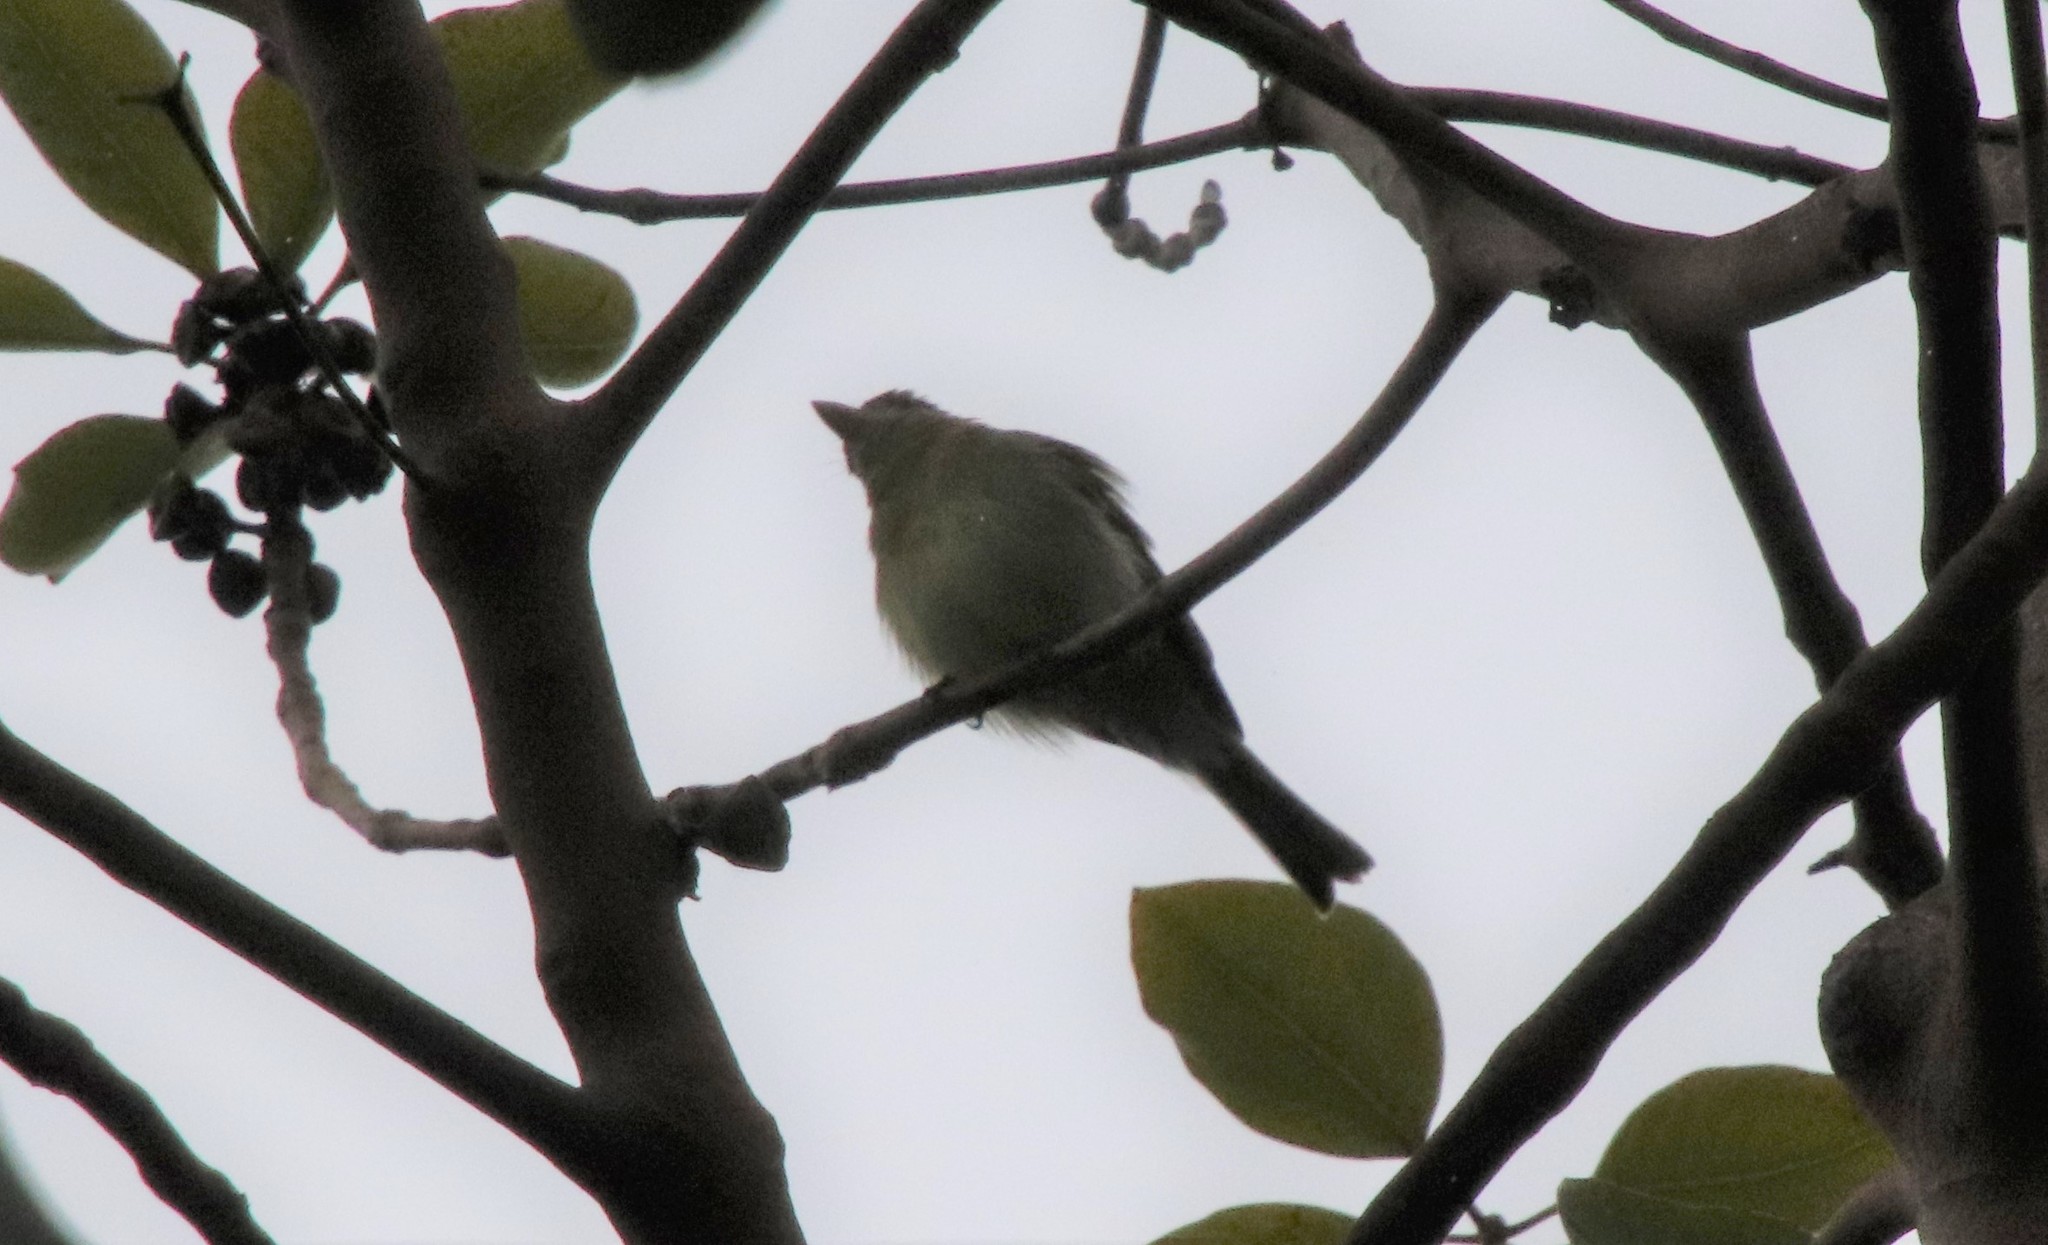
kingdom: Animalia
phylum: Chordata
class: Aves
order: Passeriformes
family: Tyrannidae
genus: Empidonax
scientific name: Empidonax difficilis
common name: Pacific-slope flycatcher
